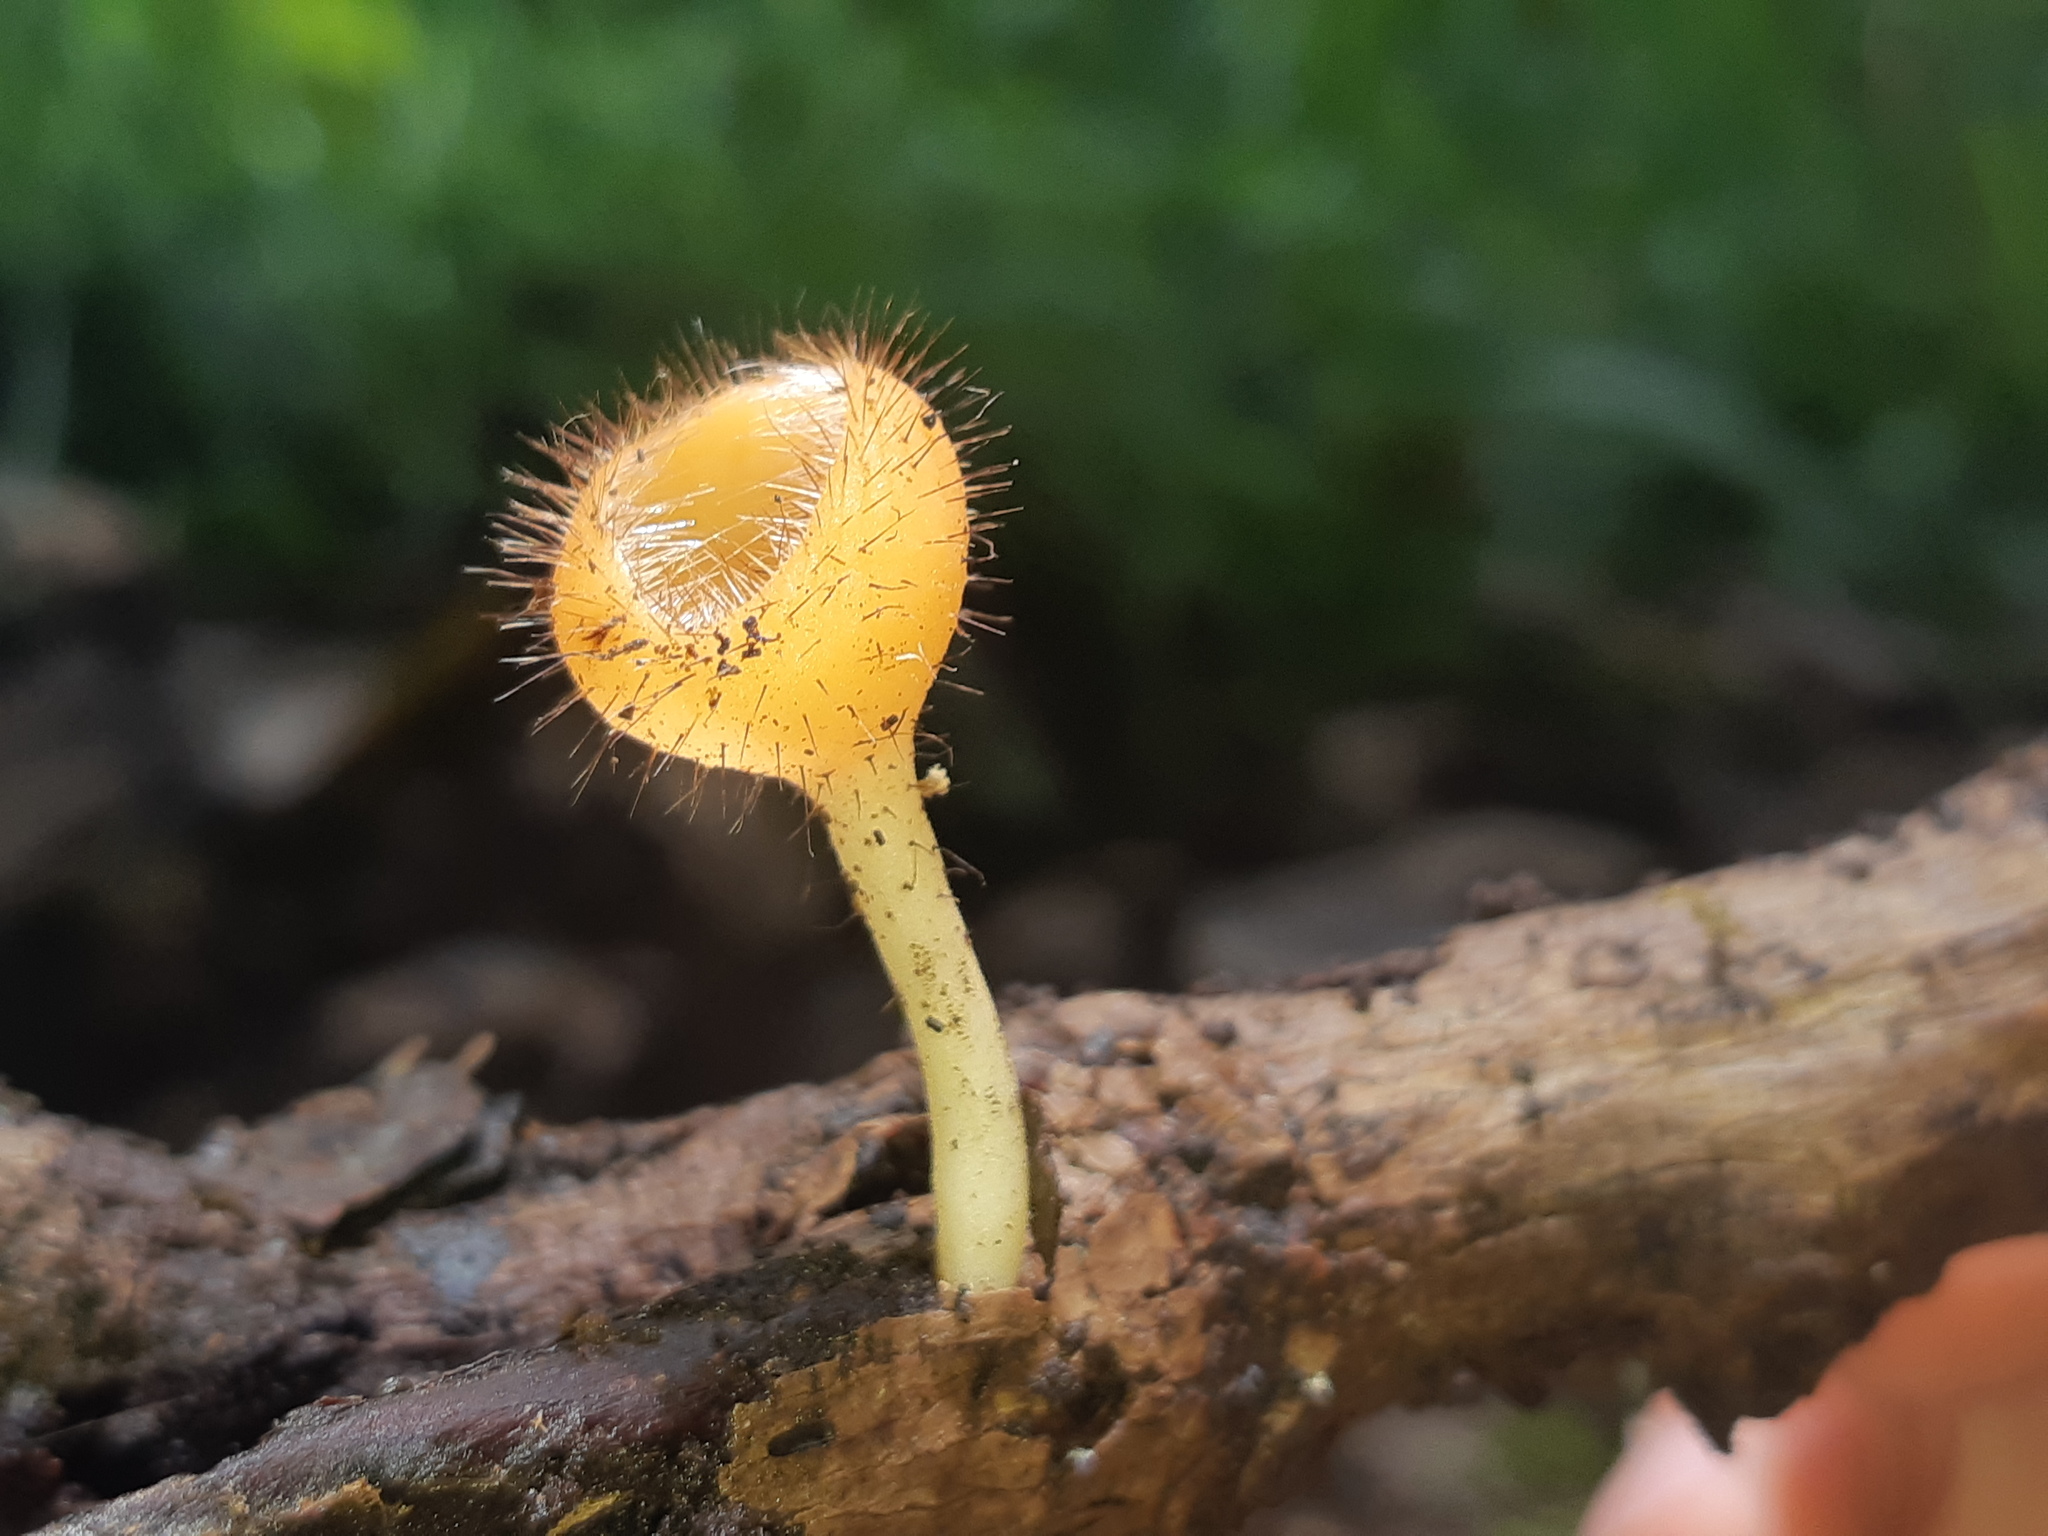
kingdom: Fungi
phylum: Ascomycota
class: Pezizomycetes
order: Pezizales
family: Sarcoscyphaceae
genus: Cookeina
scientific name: Cookeina tricholoma
